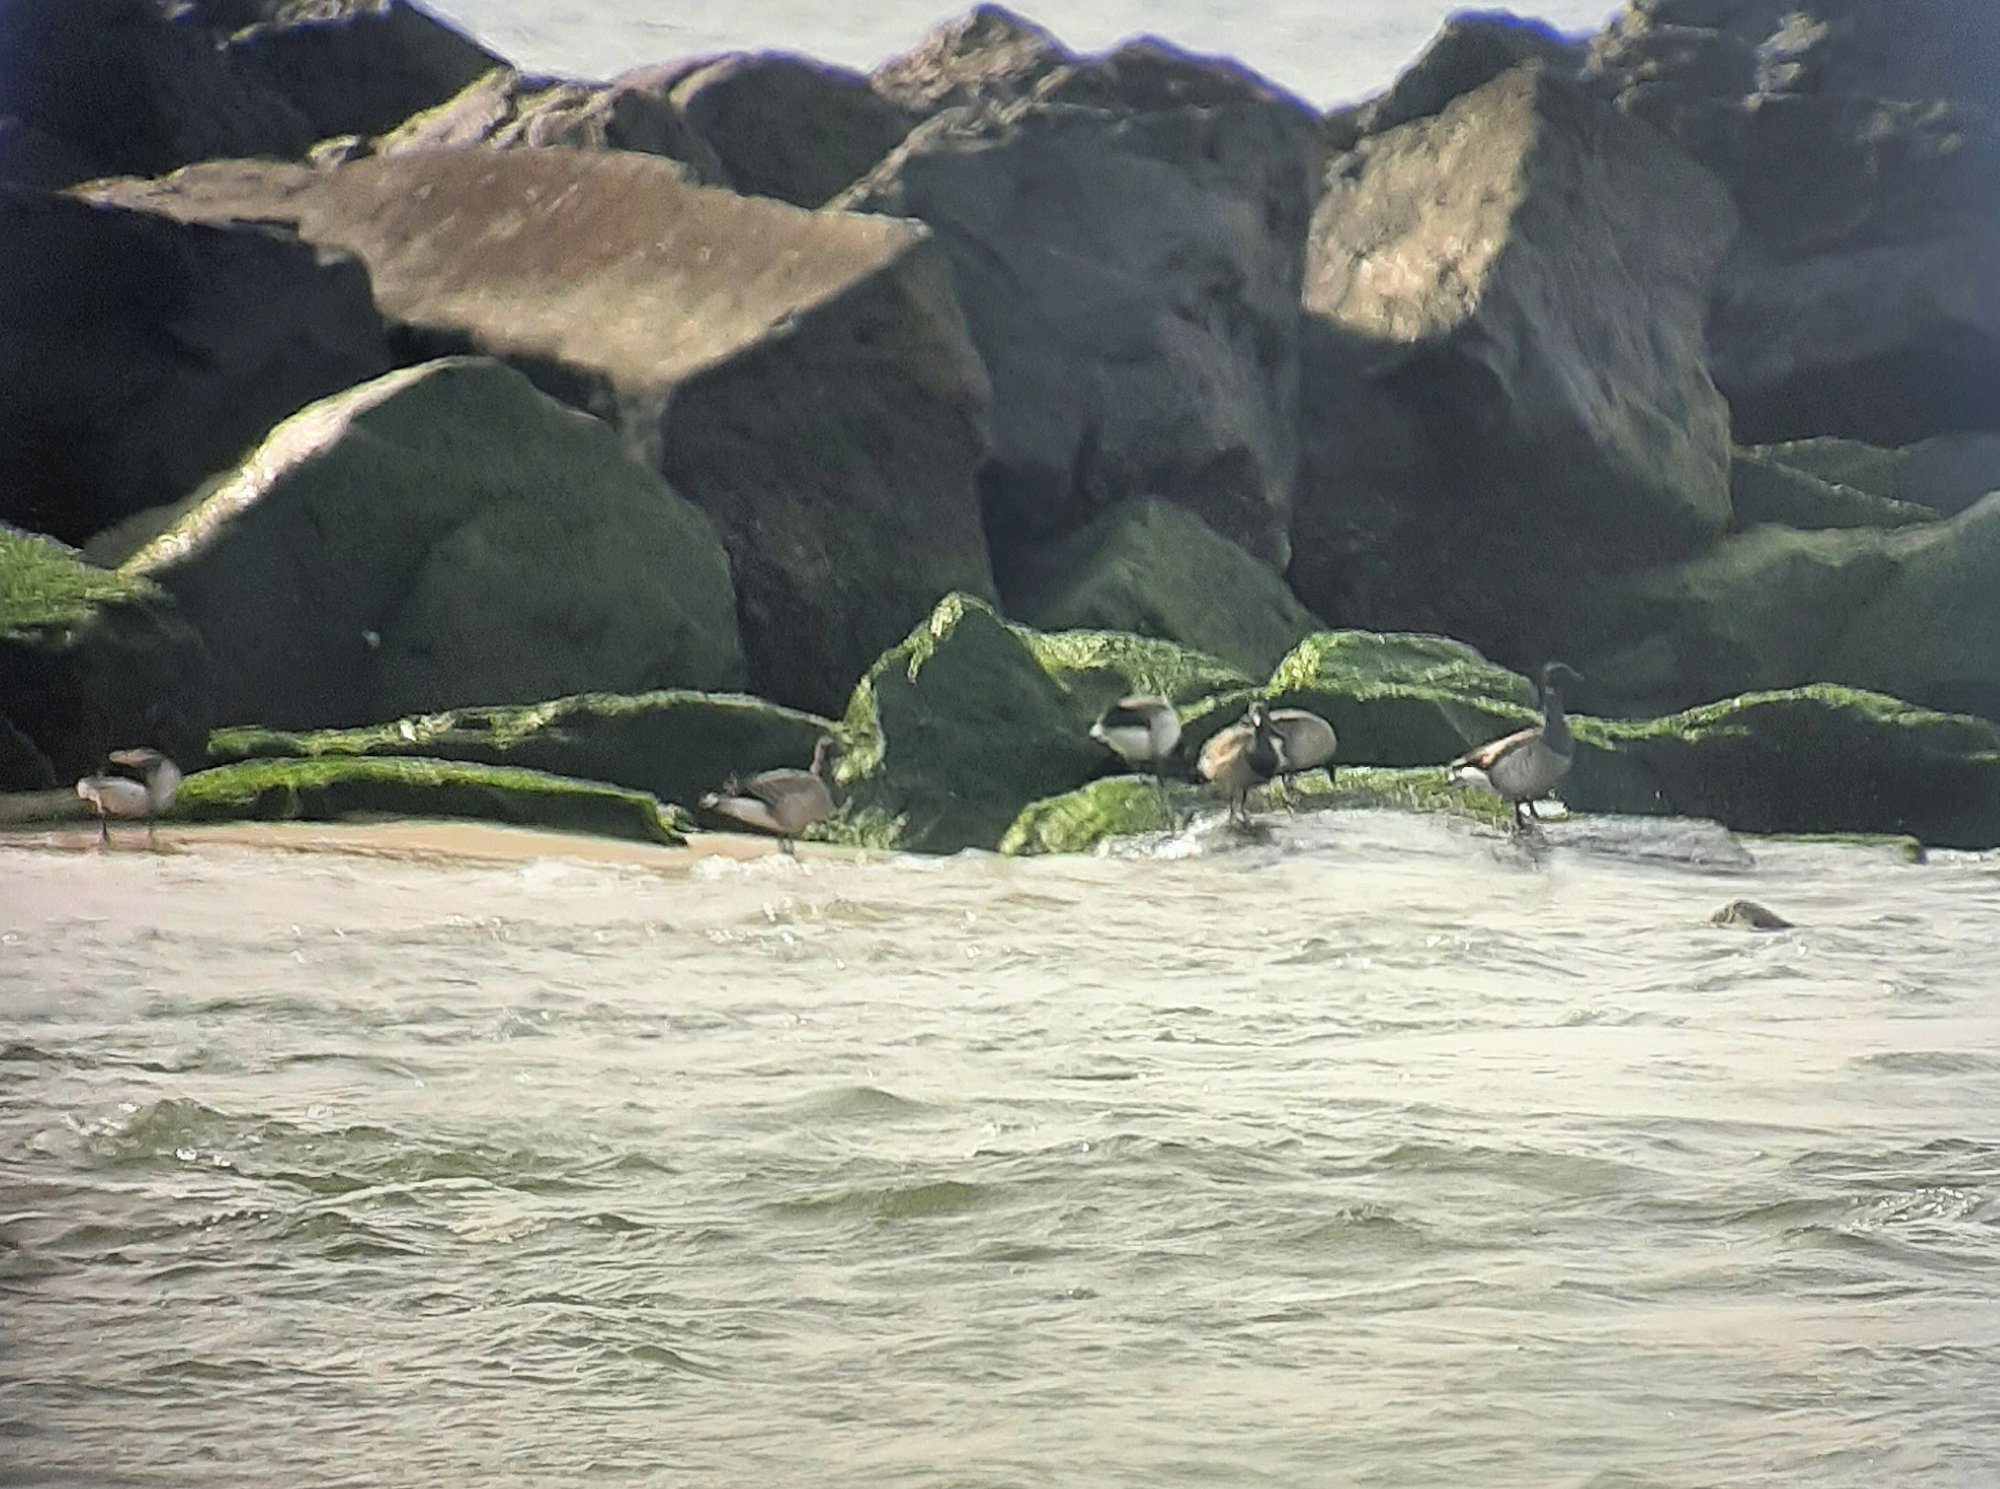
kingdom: Animalia
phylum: Chordata
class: Aves
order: Anseriformes
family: Anatidae
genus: Branta
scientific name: Branta bernicla
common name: Brant goose
